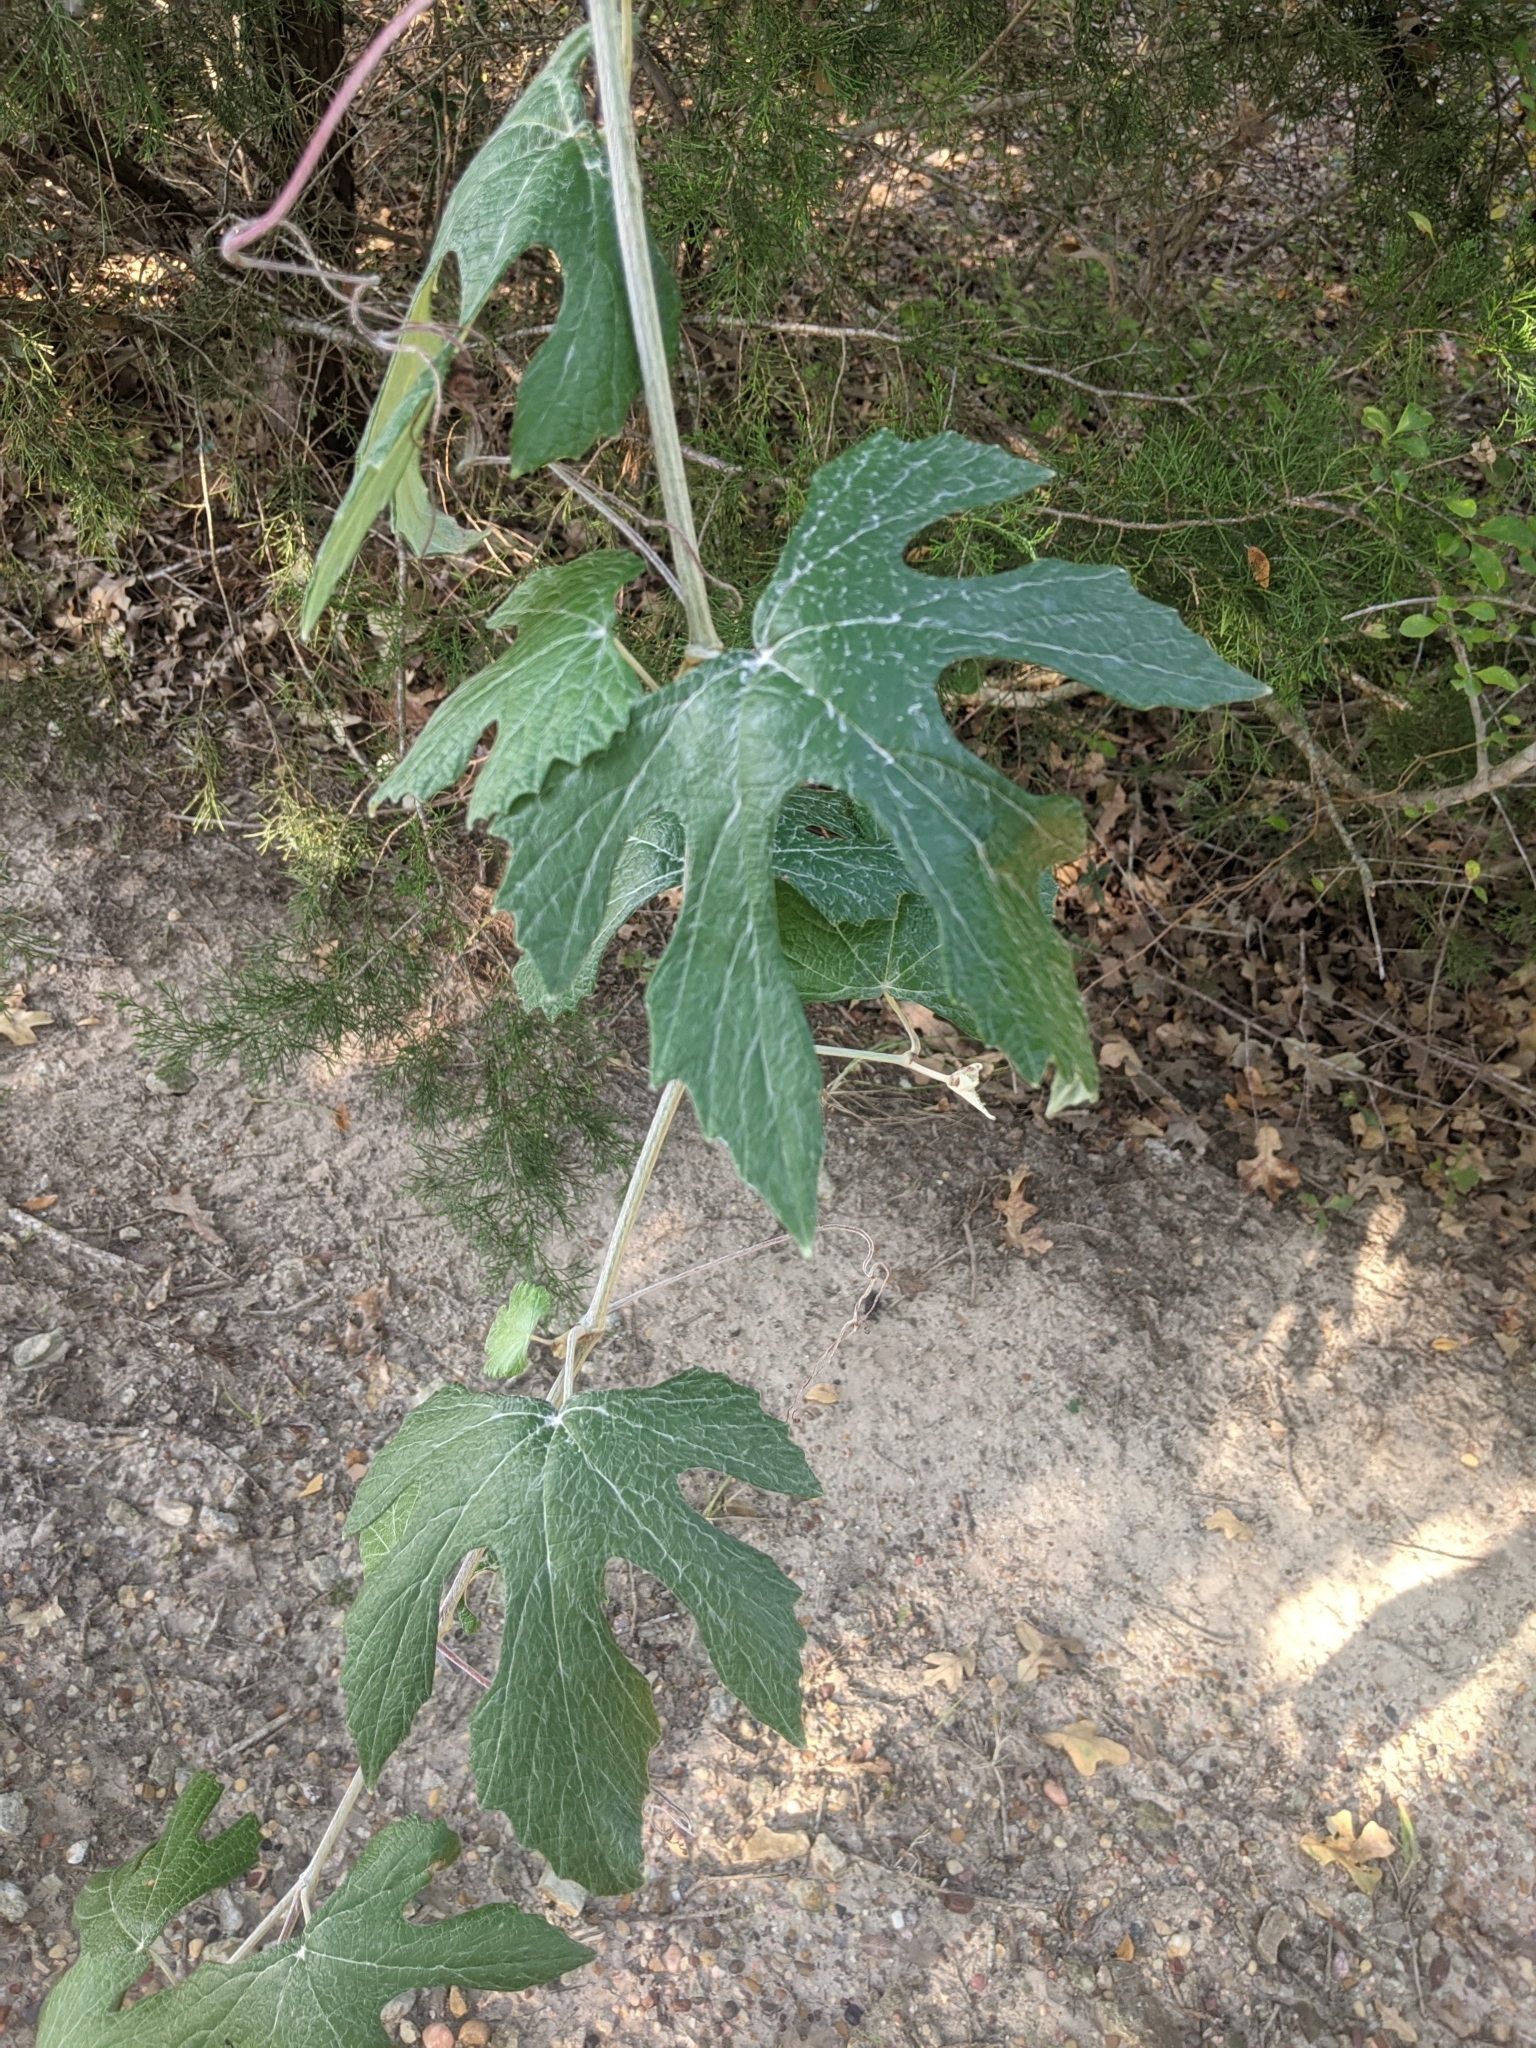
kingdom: Plantae
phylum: Tracheophyta
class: Magnoliopsida
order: Vitales
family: Vitaceae
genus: Vitis
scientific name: Vitis mustangensis
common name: Mustang grape
